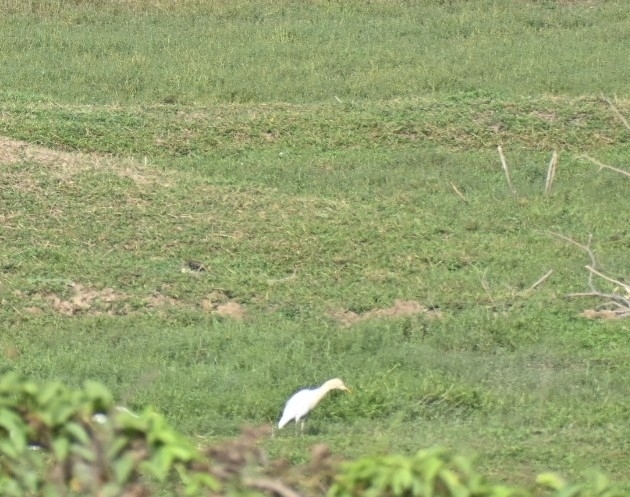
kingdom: Animalia
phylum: Chordata
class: Aves
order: Pelecaniformes
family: Ardeidae
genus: Bubulcus
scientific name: Bubulcus coromandus
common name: Eastern cattle egret
